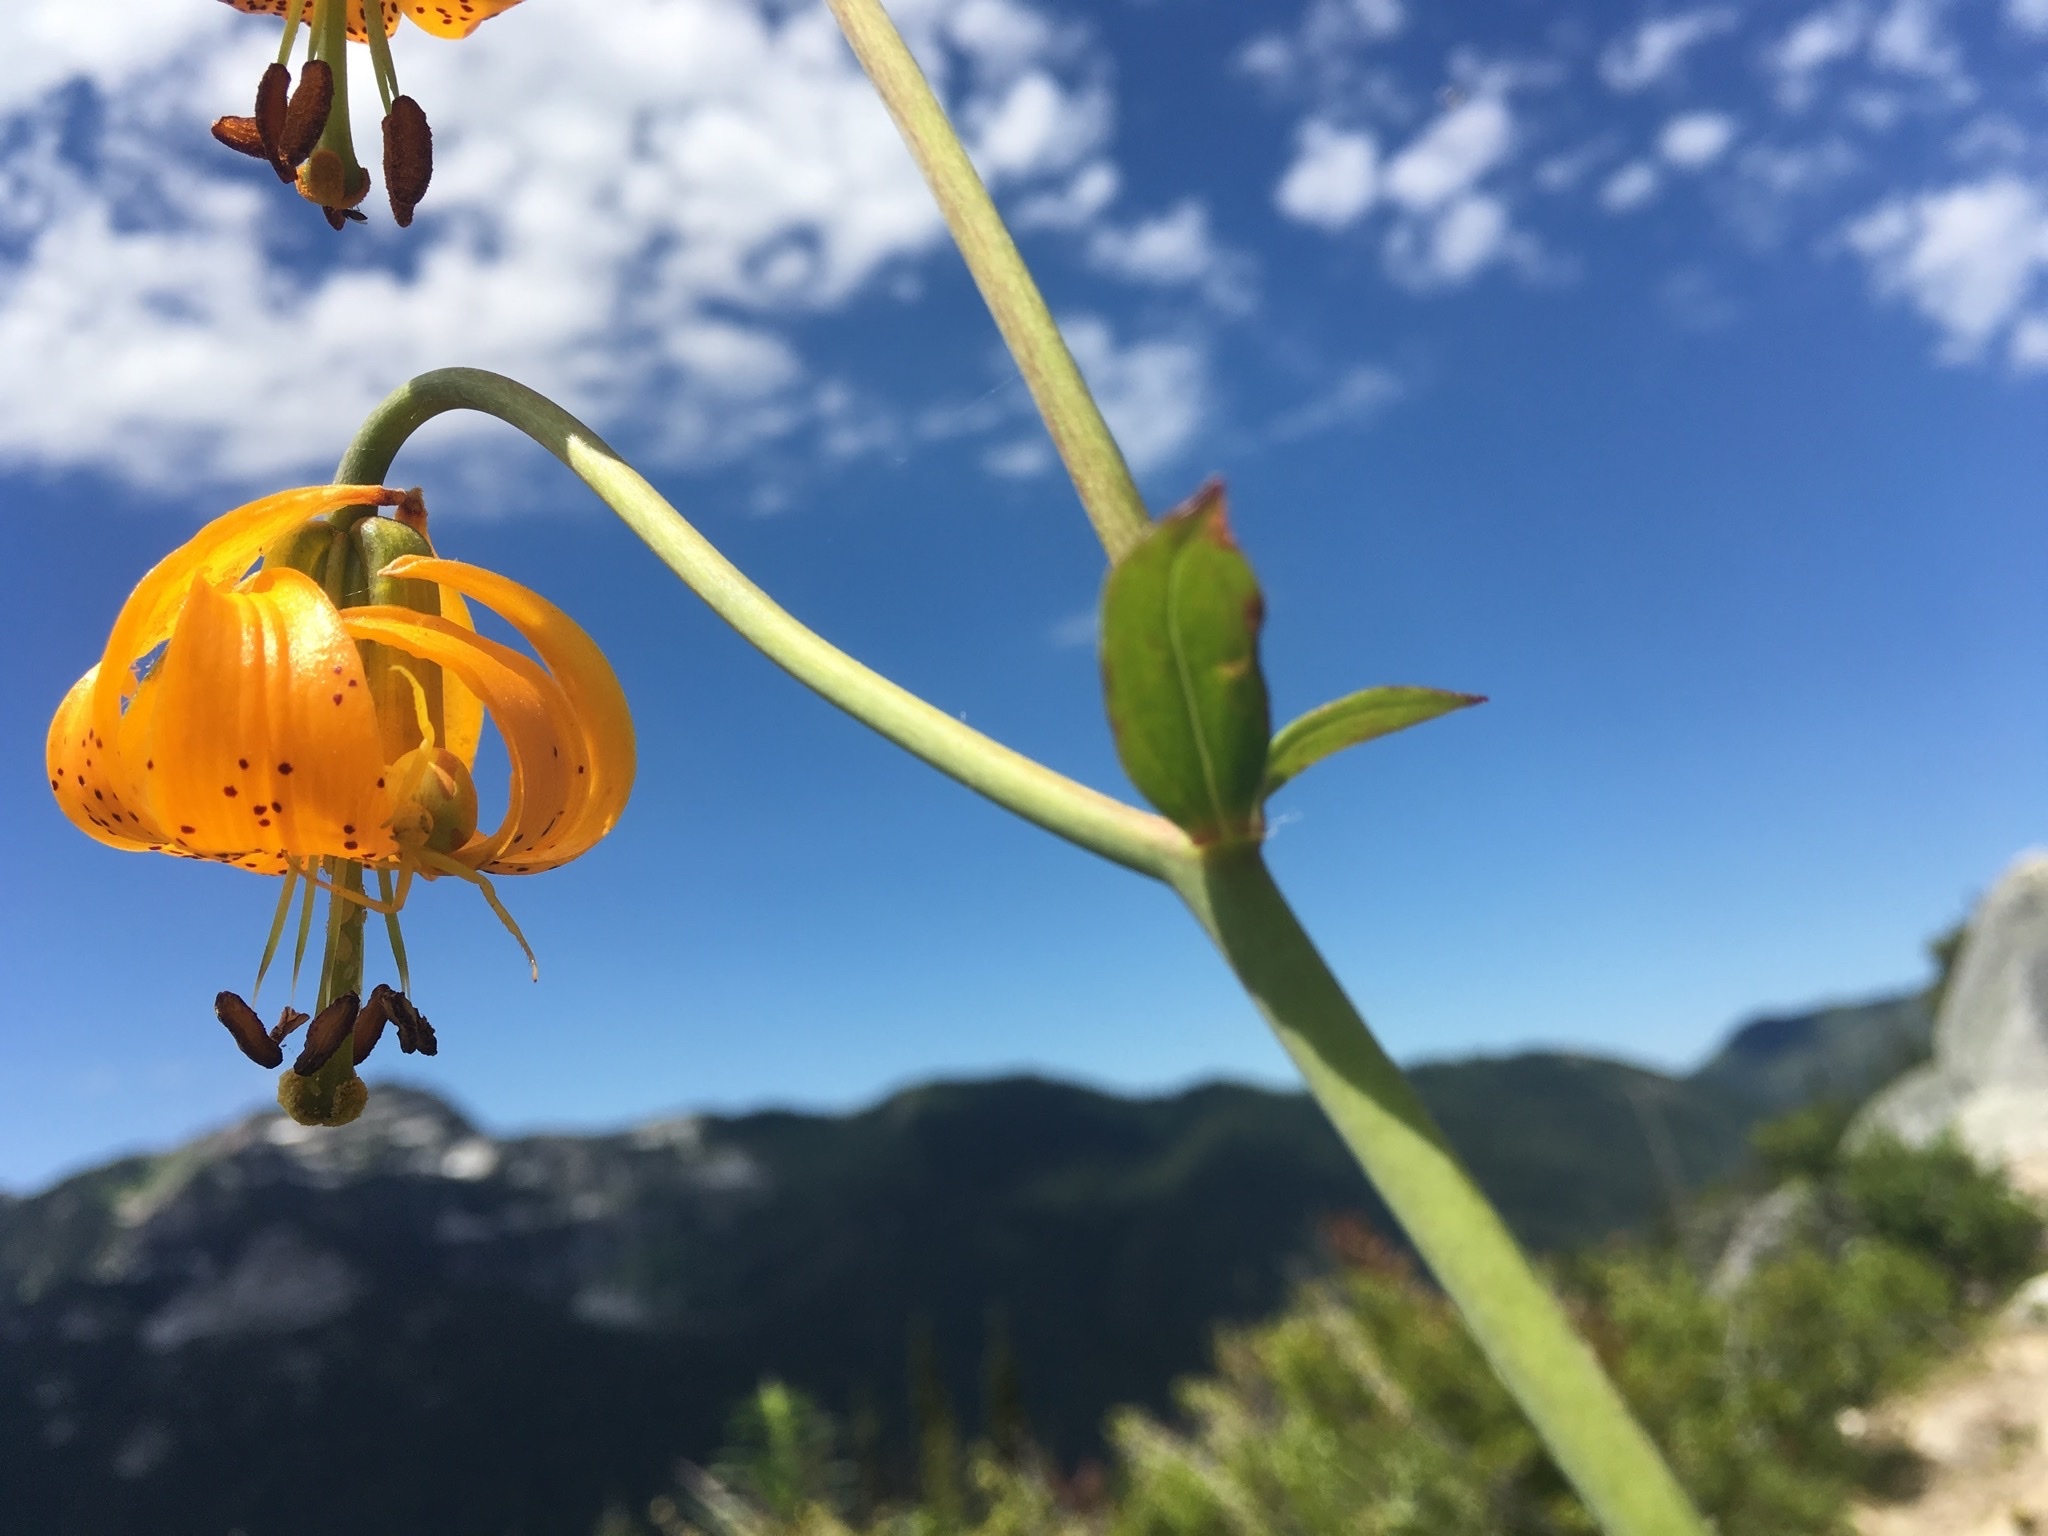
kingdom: Plantae
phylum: Tracheophyta
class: Liliopsida
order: Liliales
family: Liliaceae
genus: Lilium
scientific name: Lilium columbianum
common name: Columbia lily
